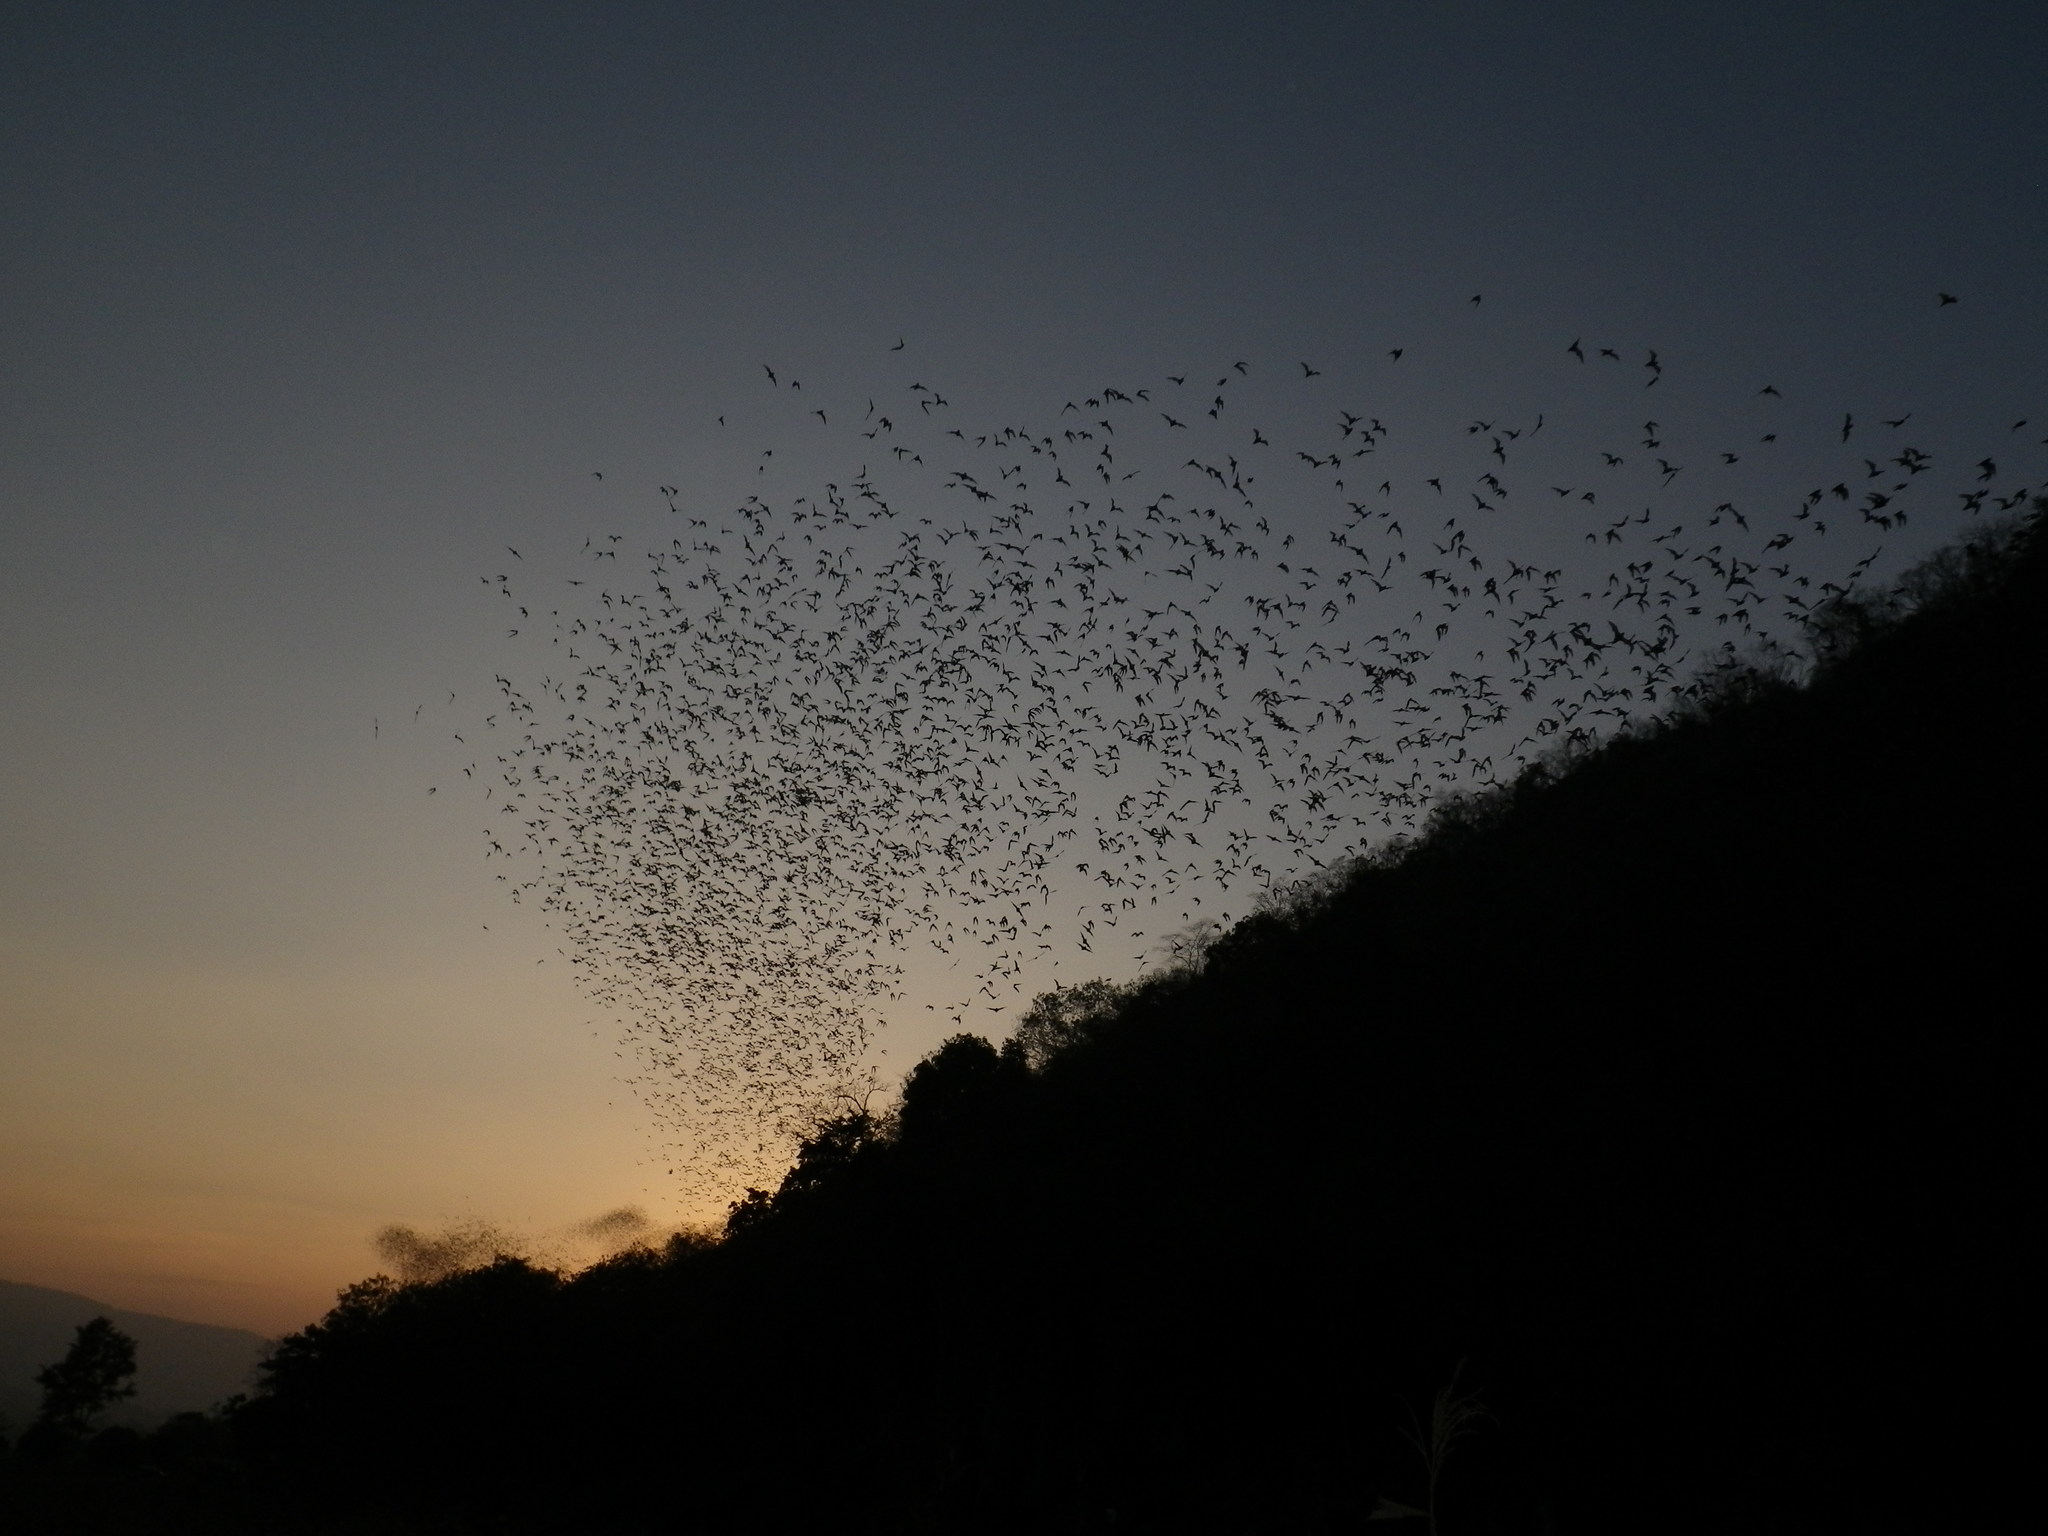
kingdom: Animalia
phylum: Chordata
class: Mammalia
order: Chiroptera
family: Molossidae
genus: Mops
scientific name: Mops
